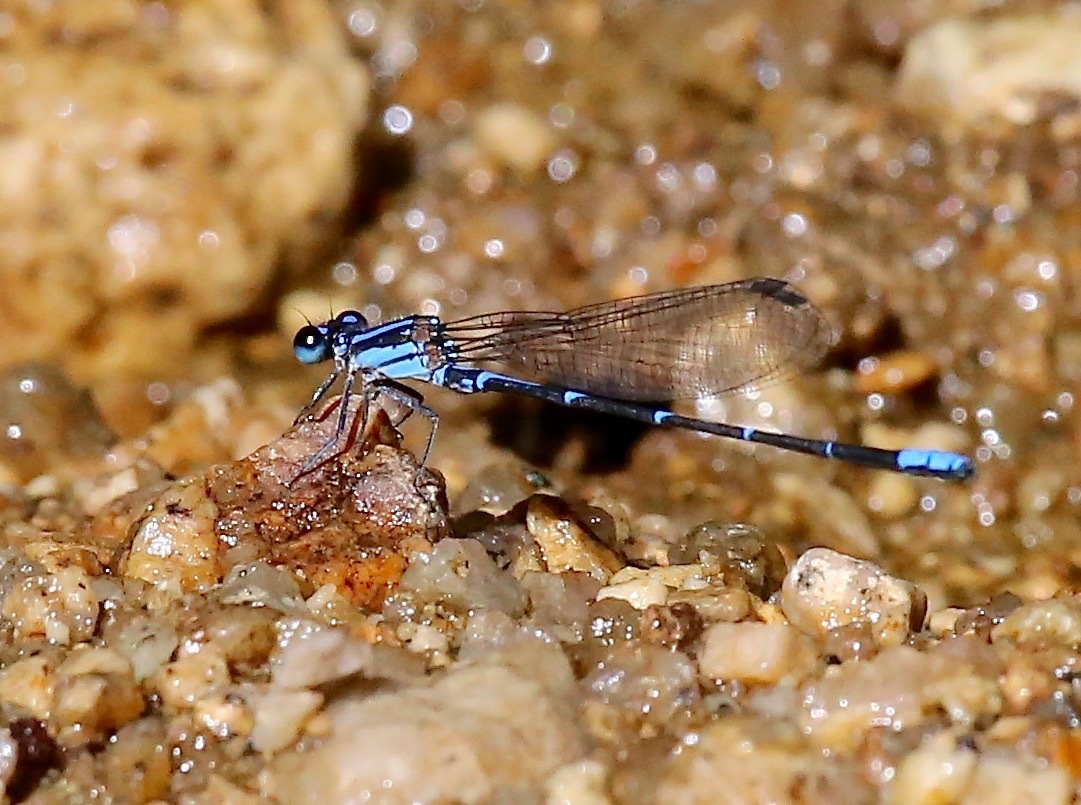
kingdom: Animalia
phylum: Arthropoda
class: Insecta
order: Odonata
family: Coenagrionidae
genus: Argia
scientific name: Argia oculata
